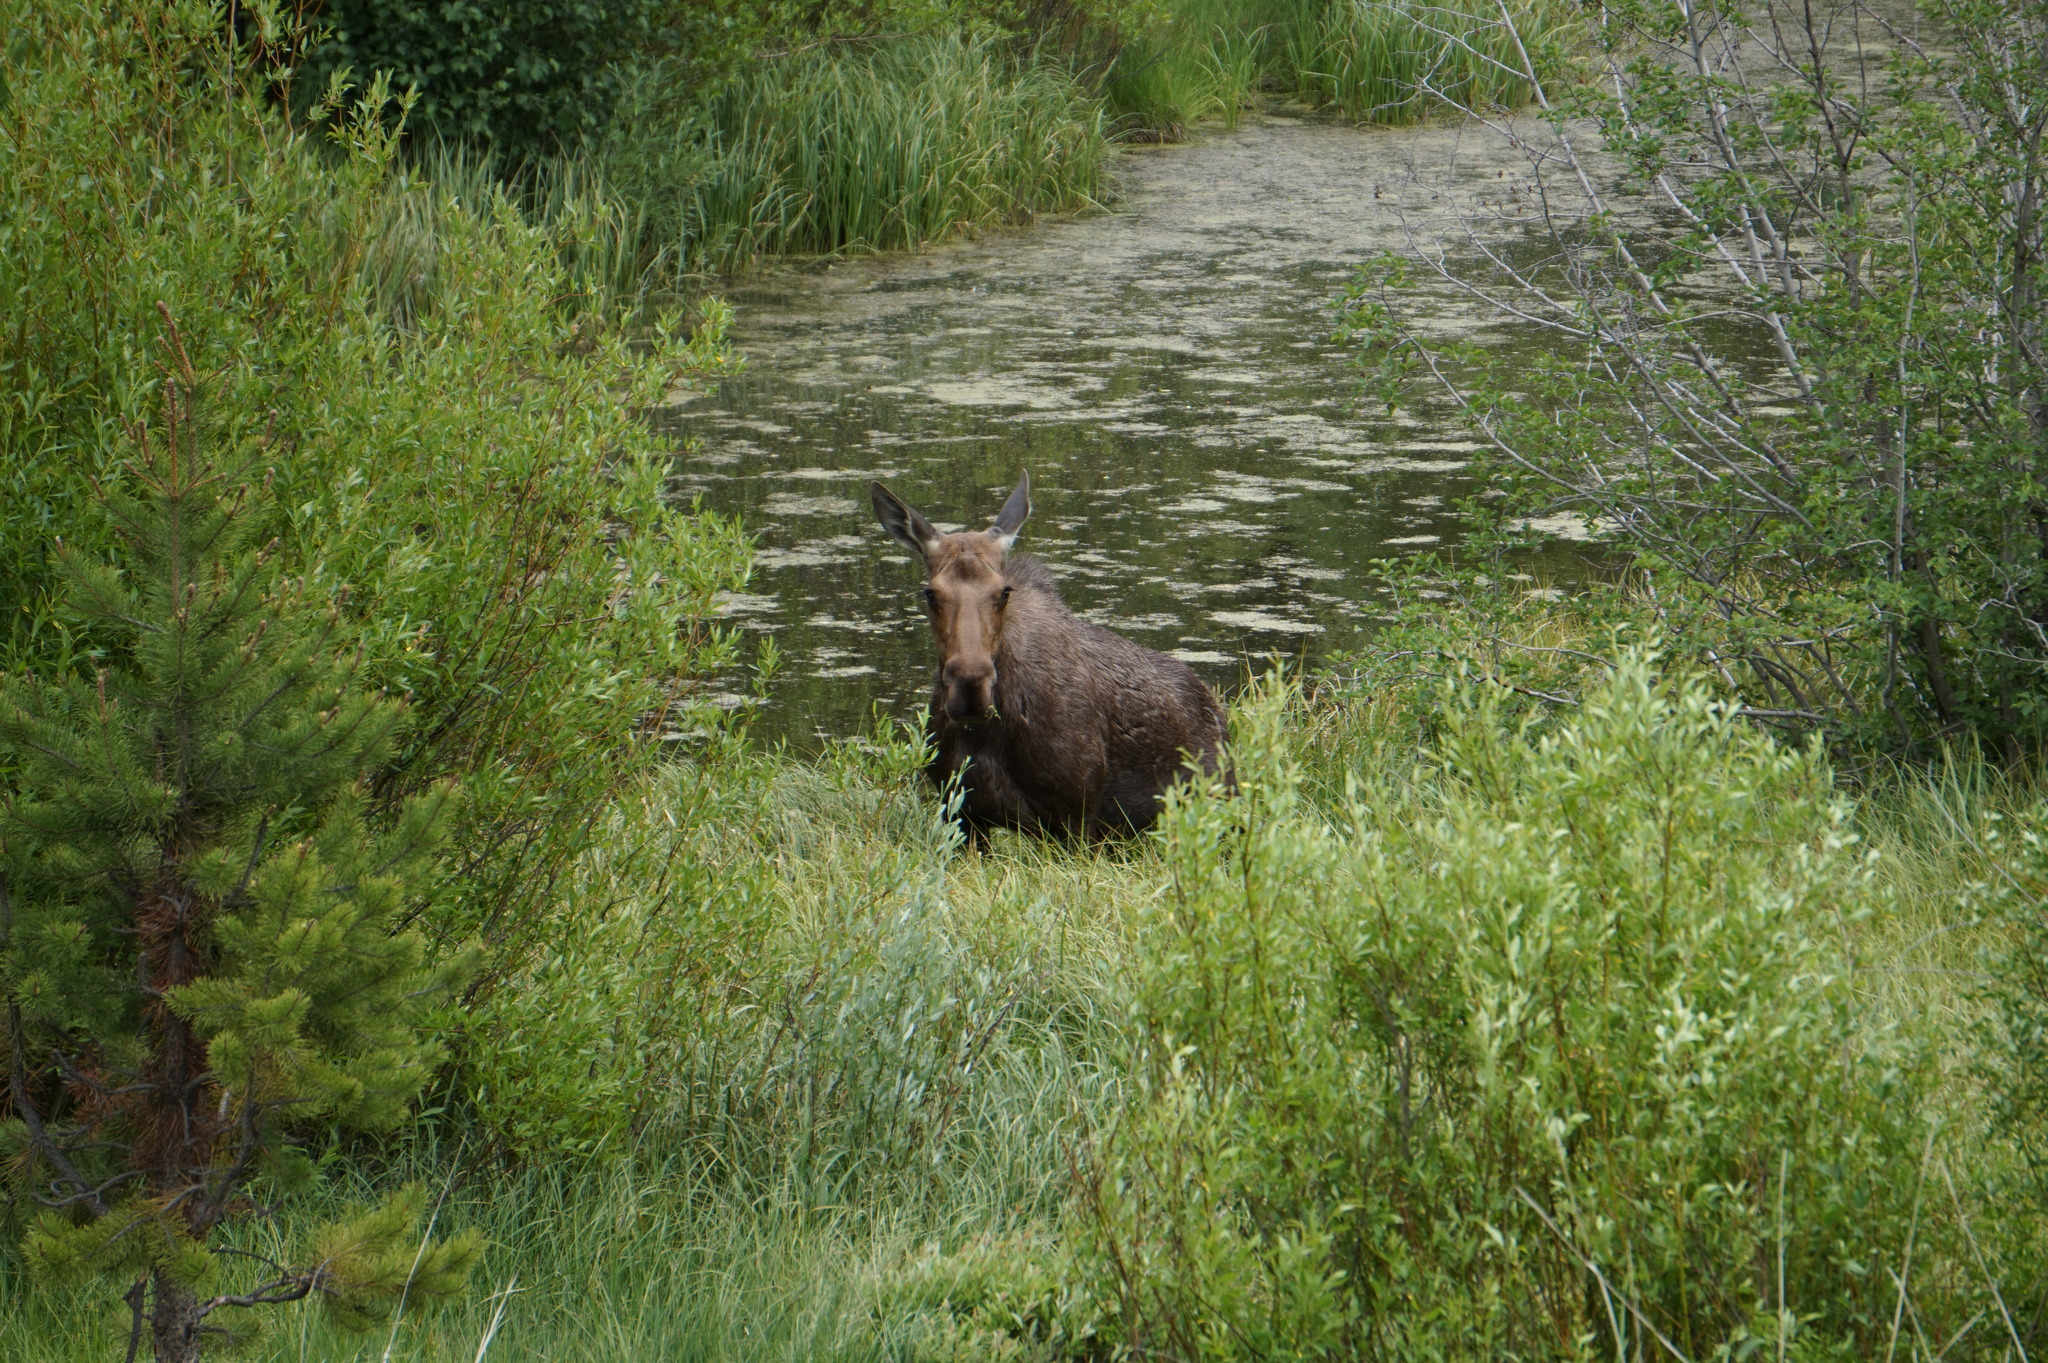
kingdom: Animalia
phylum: Chordata
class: Mammalia
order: Artiodactyla
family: Cervidae
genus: Alces
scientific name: Alces alces
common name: Moose
